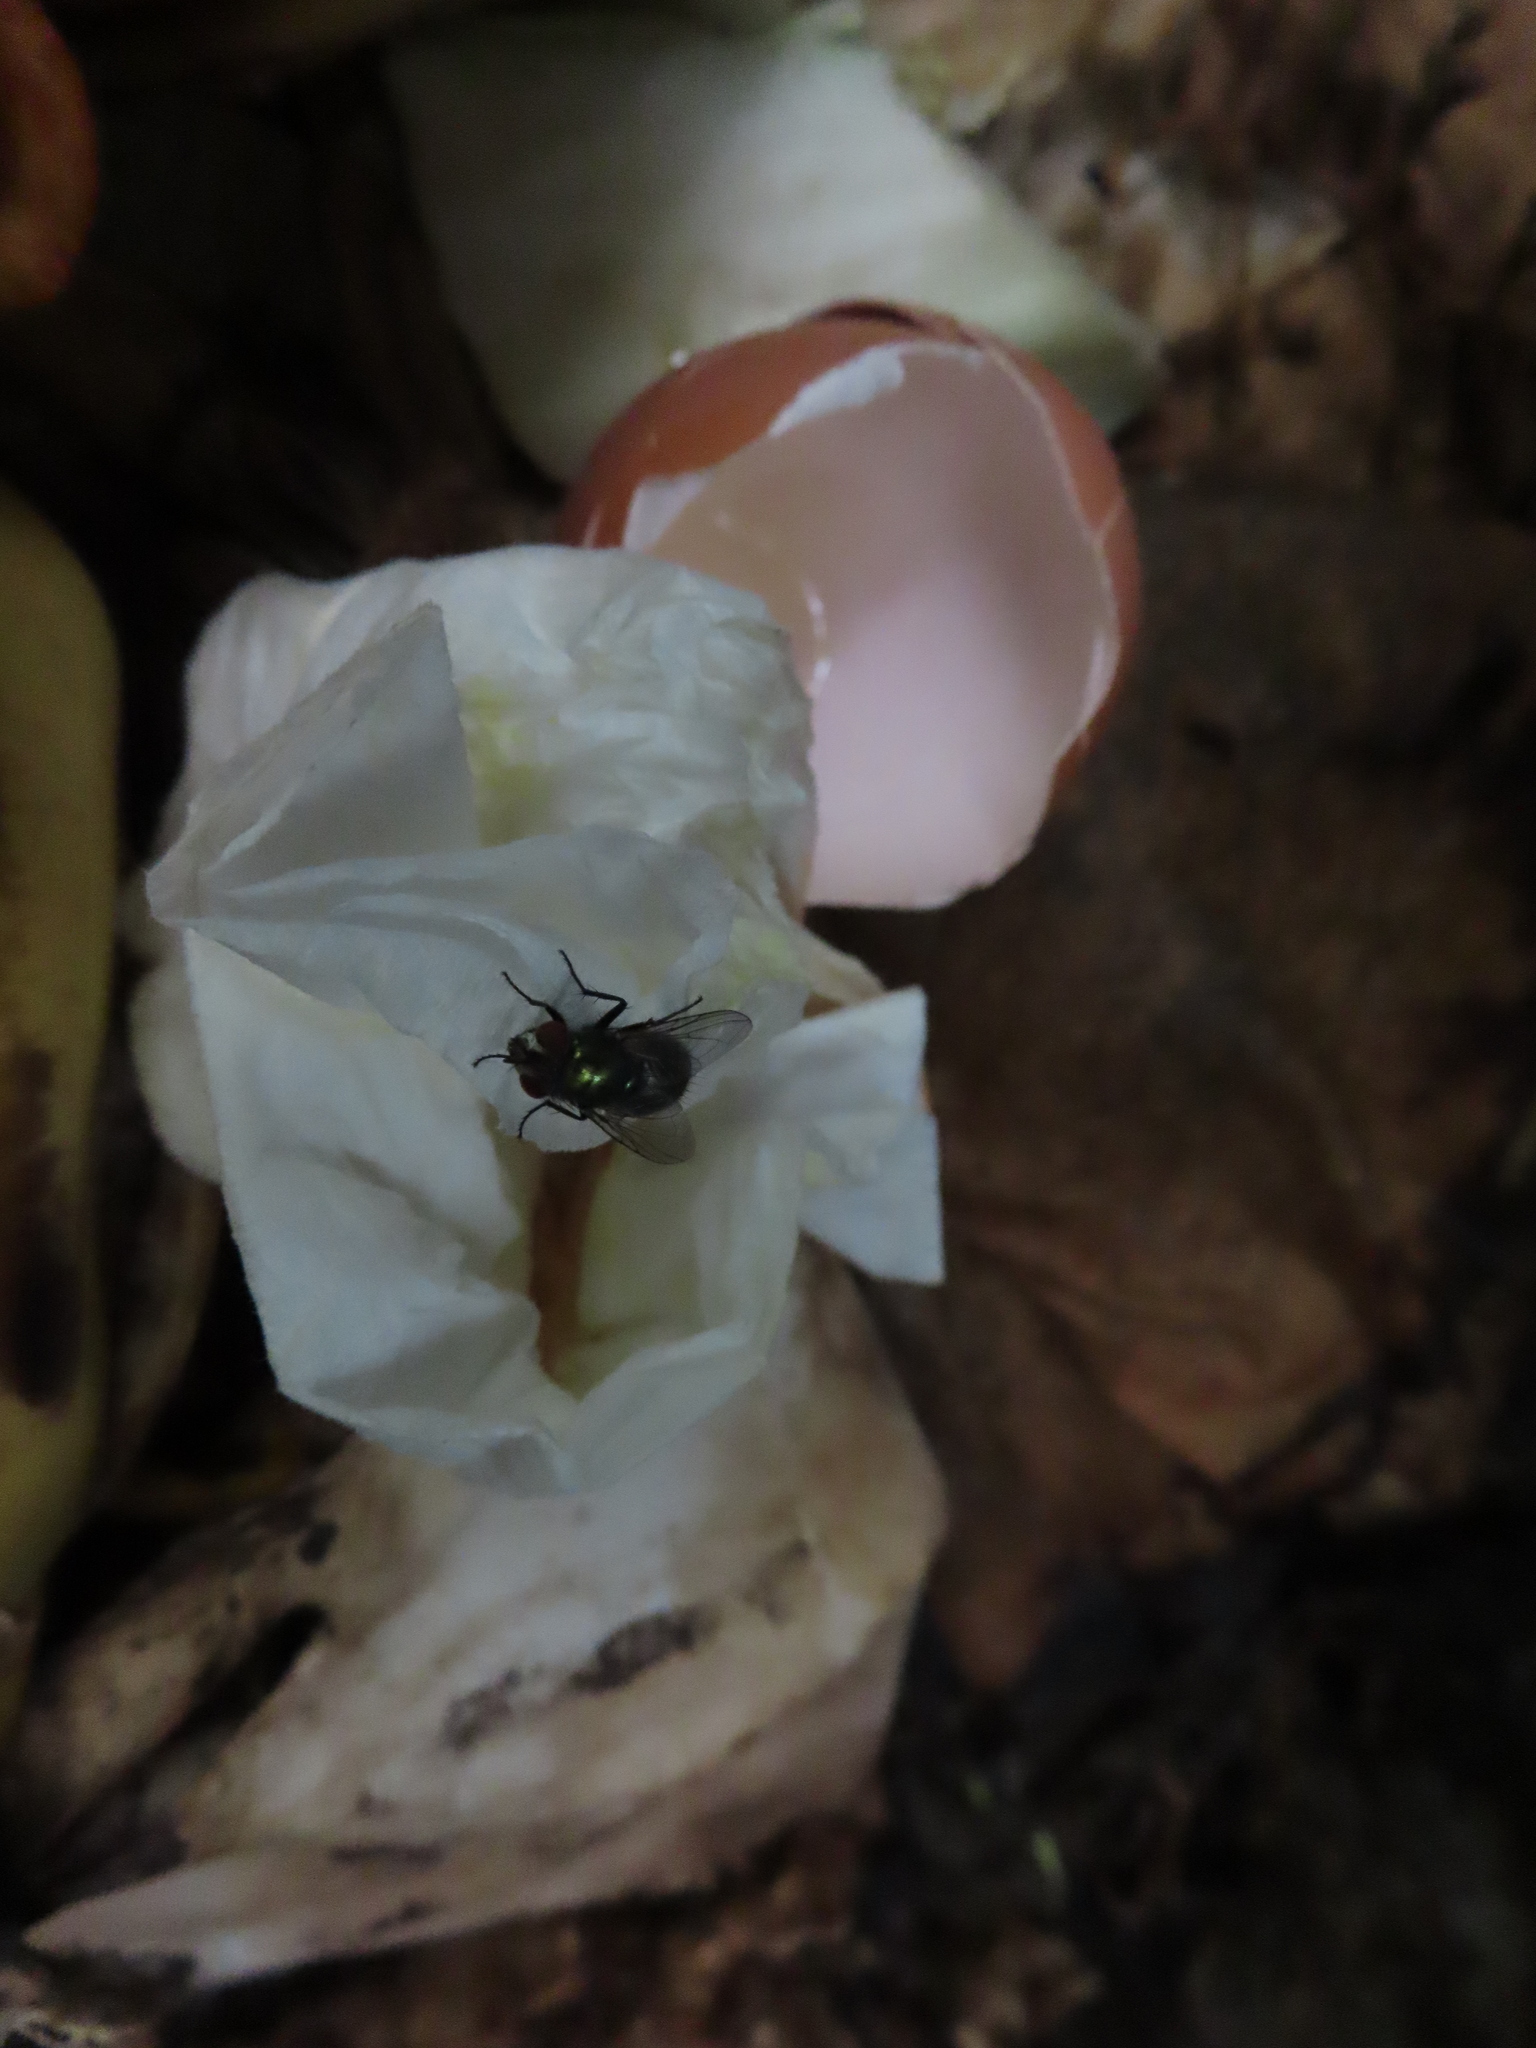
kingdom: Animalia
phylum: Arthropoda
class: Insecta
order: Diptera
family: Calliphoridae
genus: Lucilia
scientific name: Lucilia
